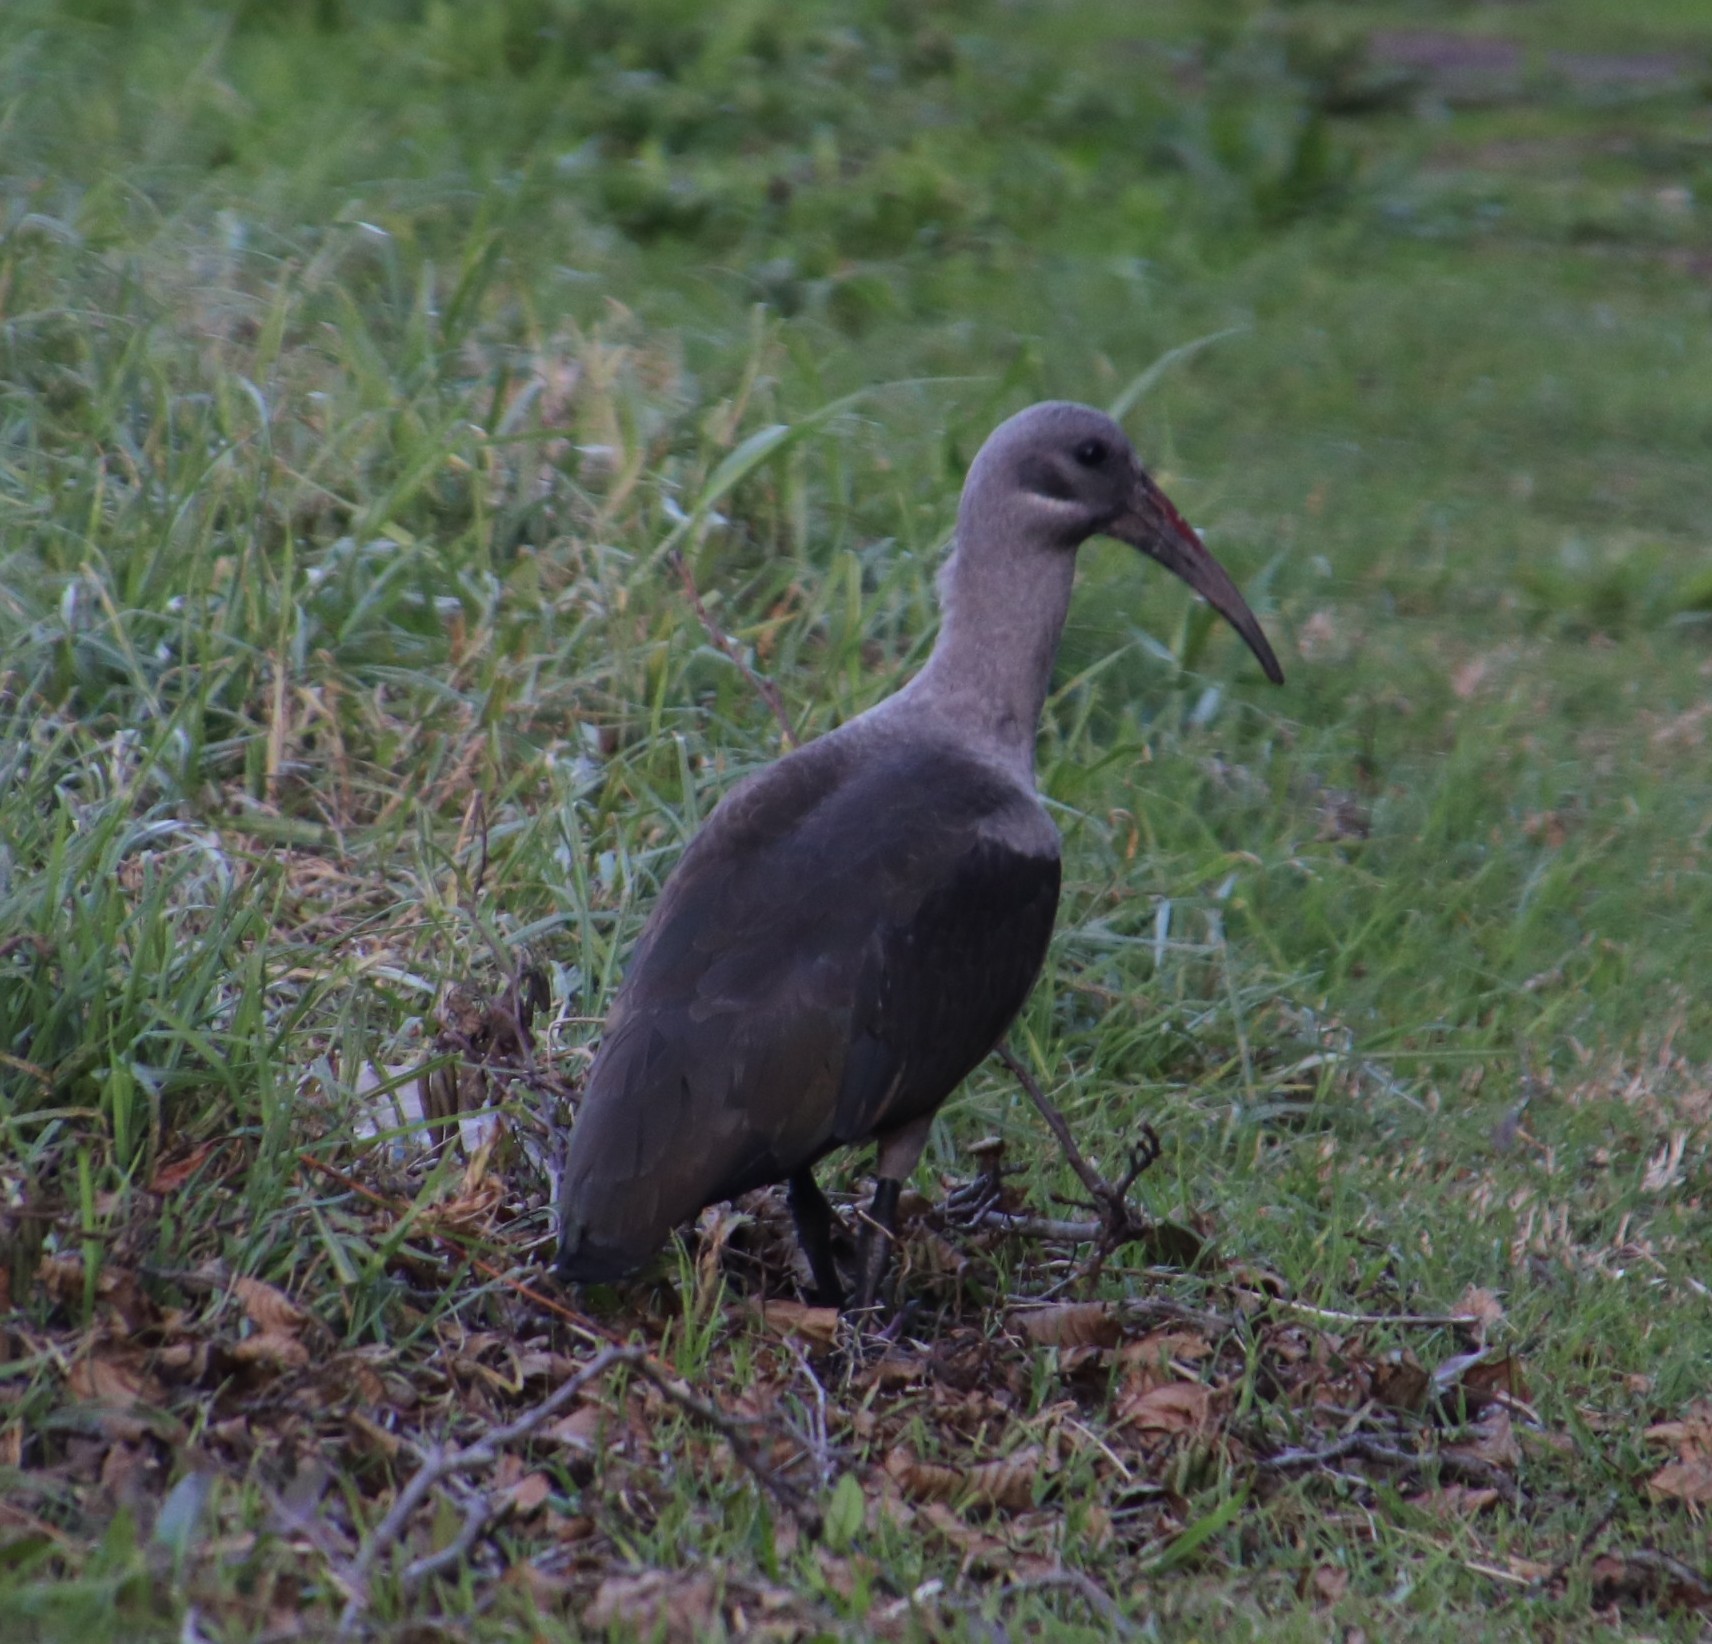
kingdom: Animalia
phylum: Chordata
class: Aves
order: Pelecaniformes
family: Threskiornithidae
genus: Bostrychia
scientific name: Bostrychia hagedash
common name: Hadada ibis
